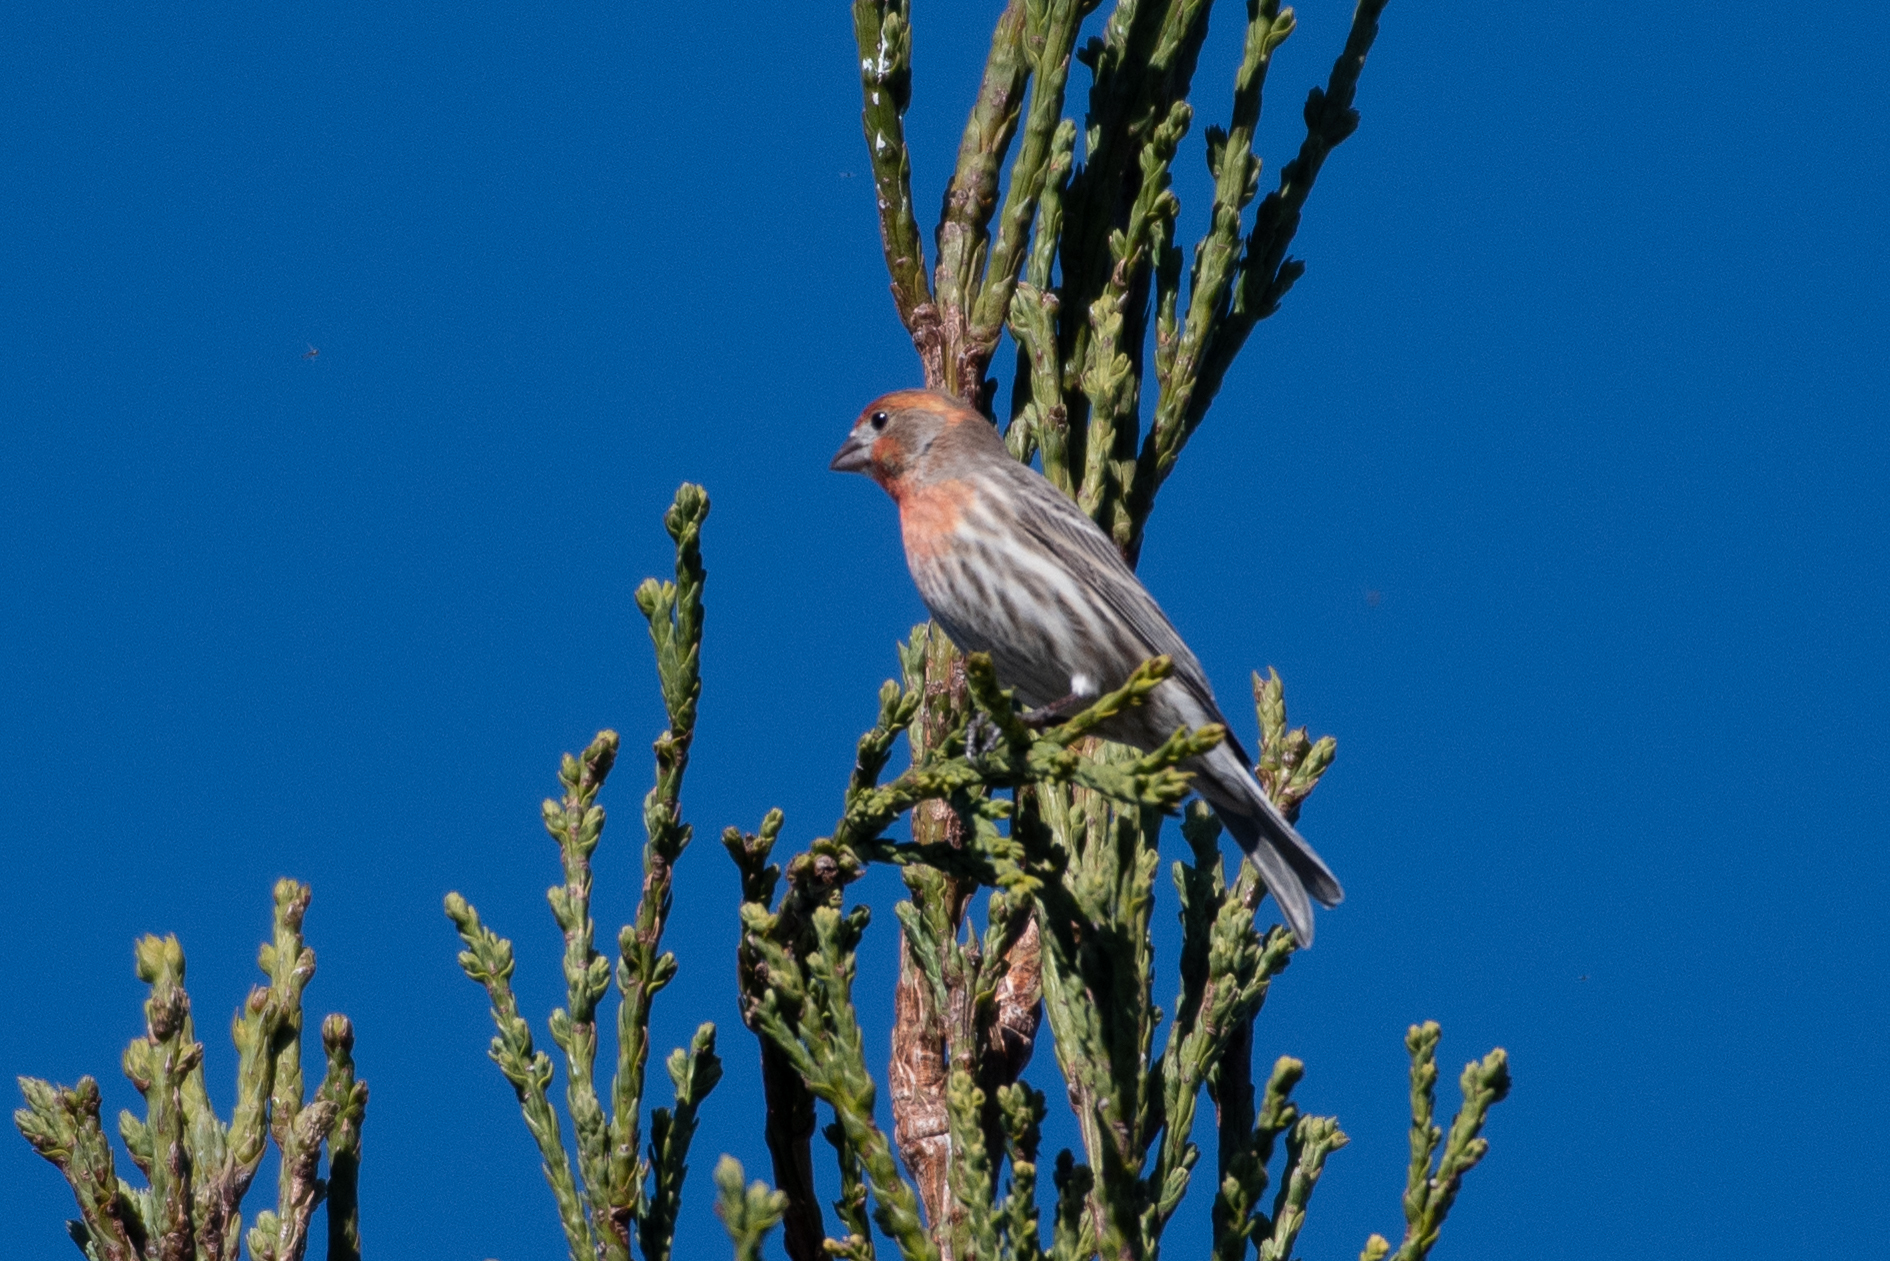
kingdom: Animalia
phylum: Chordata
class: Aves
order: Passeriformes
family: Fringillidae
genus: Haemorhous
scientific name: Haemorhous mexicanus
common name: House finch
